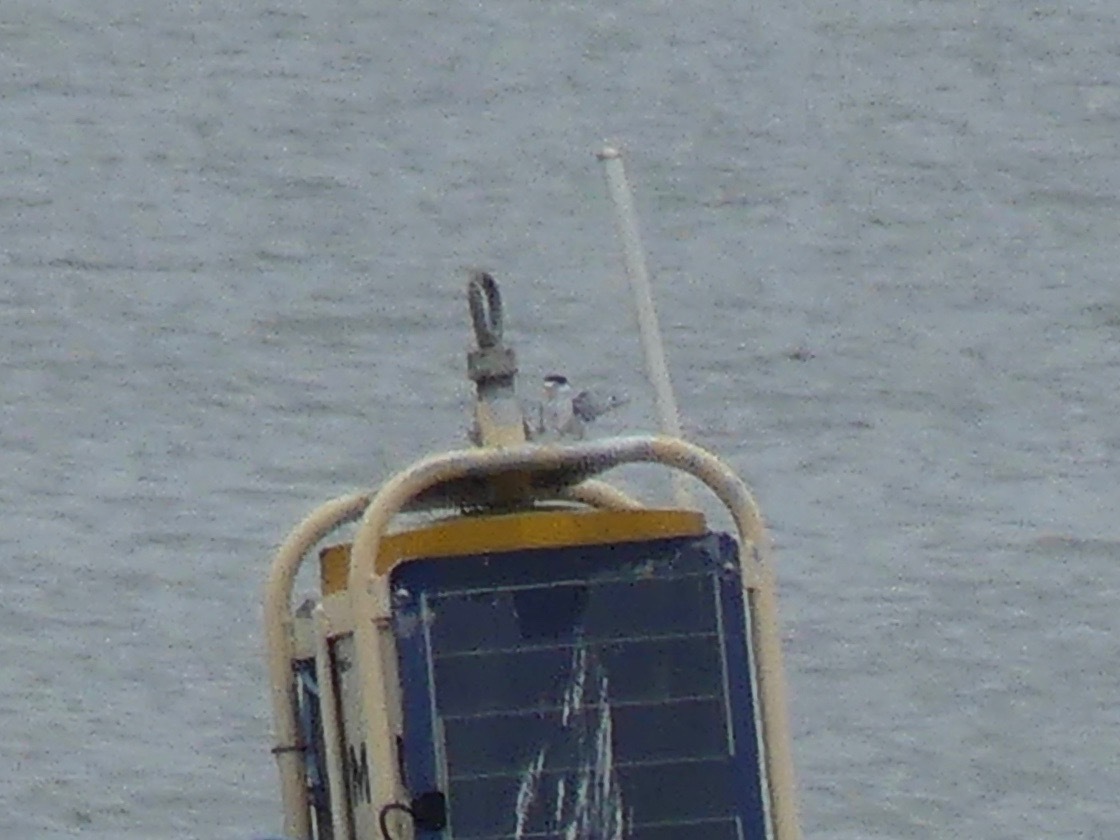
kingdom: Animalia
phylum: Chordata
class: Aves
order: Charadriiformes
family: Laridae
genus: Sternula
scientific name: Sternula antillarum
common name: Least tern
